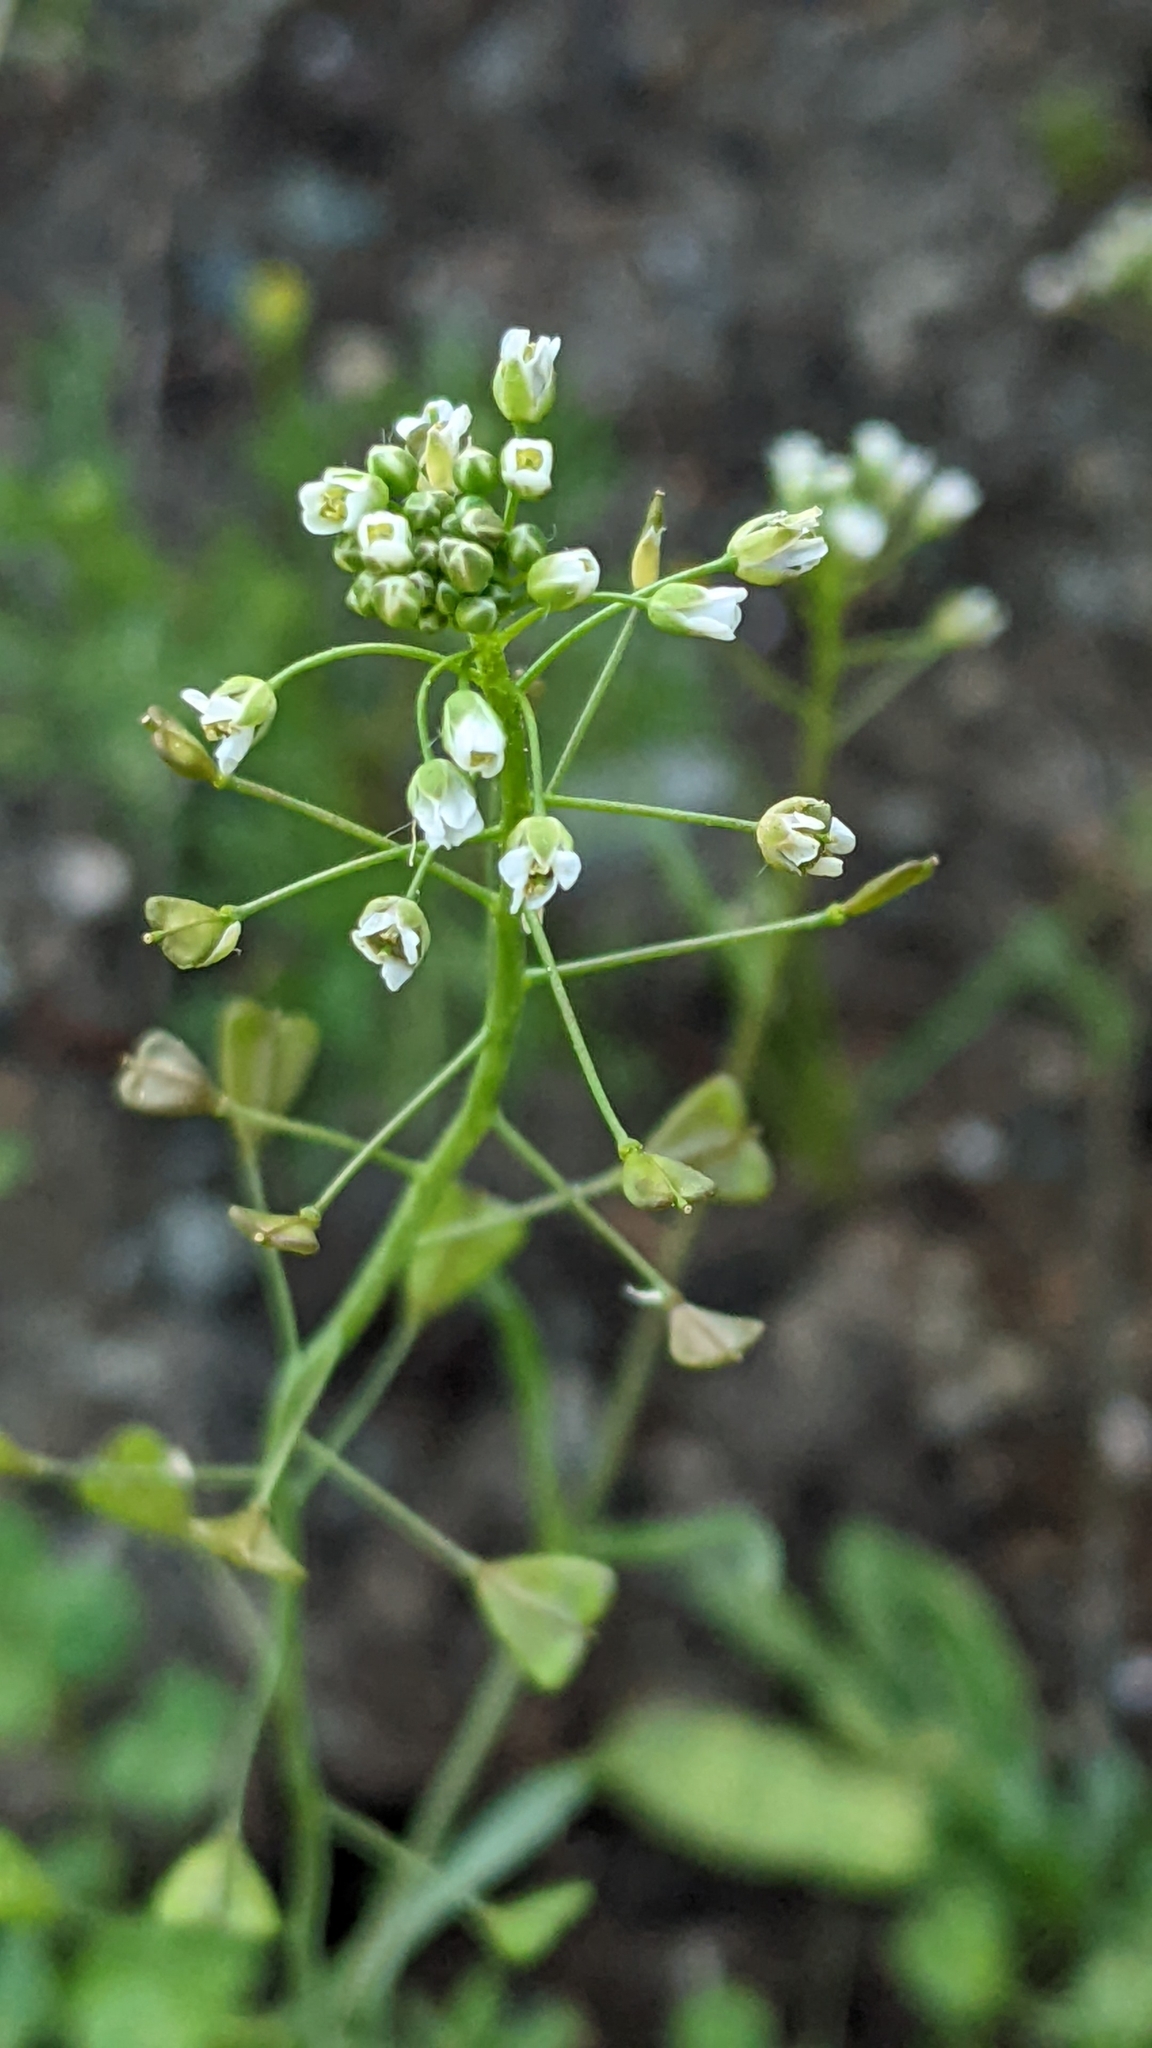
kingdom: Plantae
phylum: Tracheophyta
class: Magnoliopsida
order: Brassicales
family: Brassicaceae
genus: Capsella
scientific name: Capsella bursa-pastoris
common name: Shepherd's purse
